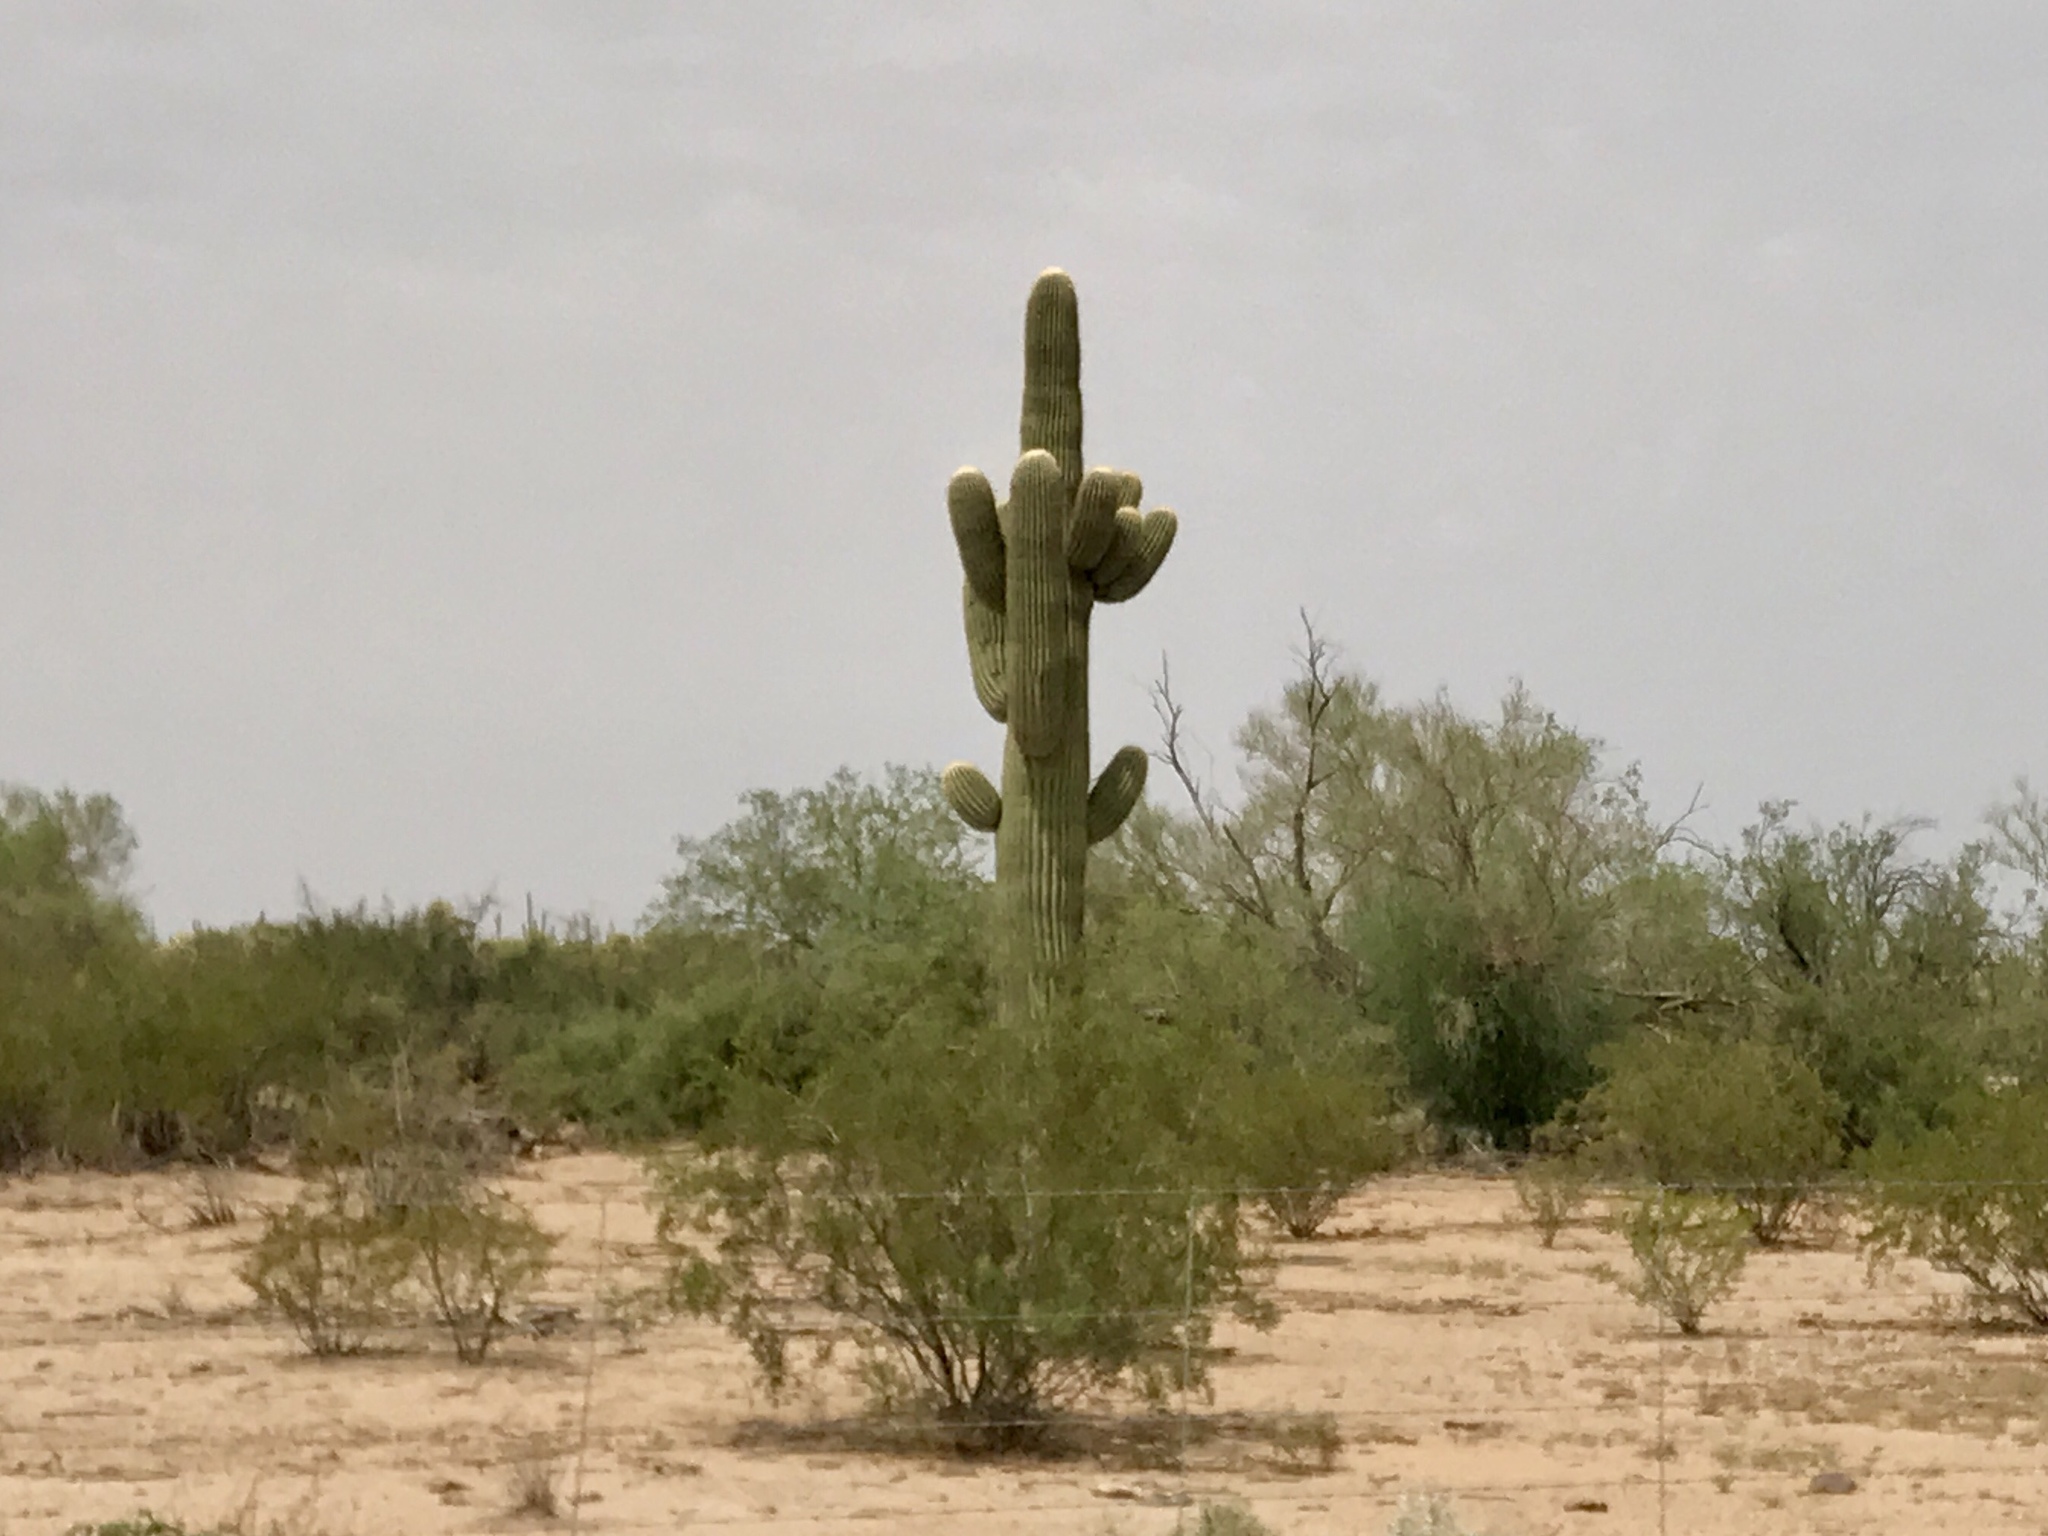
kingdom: Plantae
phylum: Tracheophyta
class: Magnoliopsida
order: Caryophyllales
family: Cactaceae
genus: Carnegiea
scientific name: Carnegiea gigantea
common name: Saguaro
